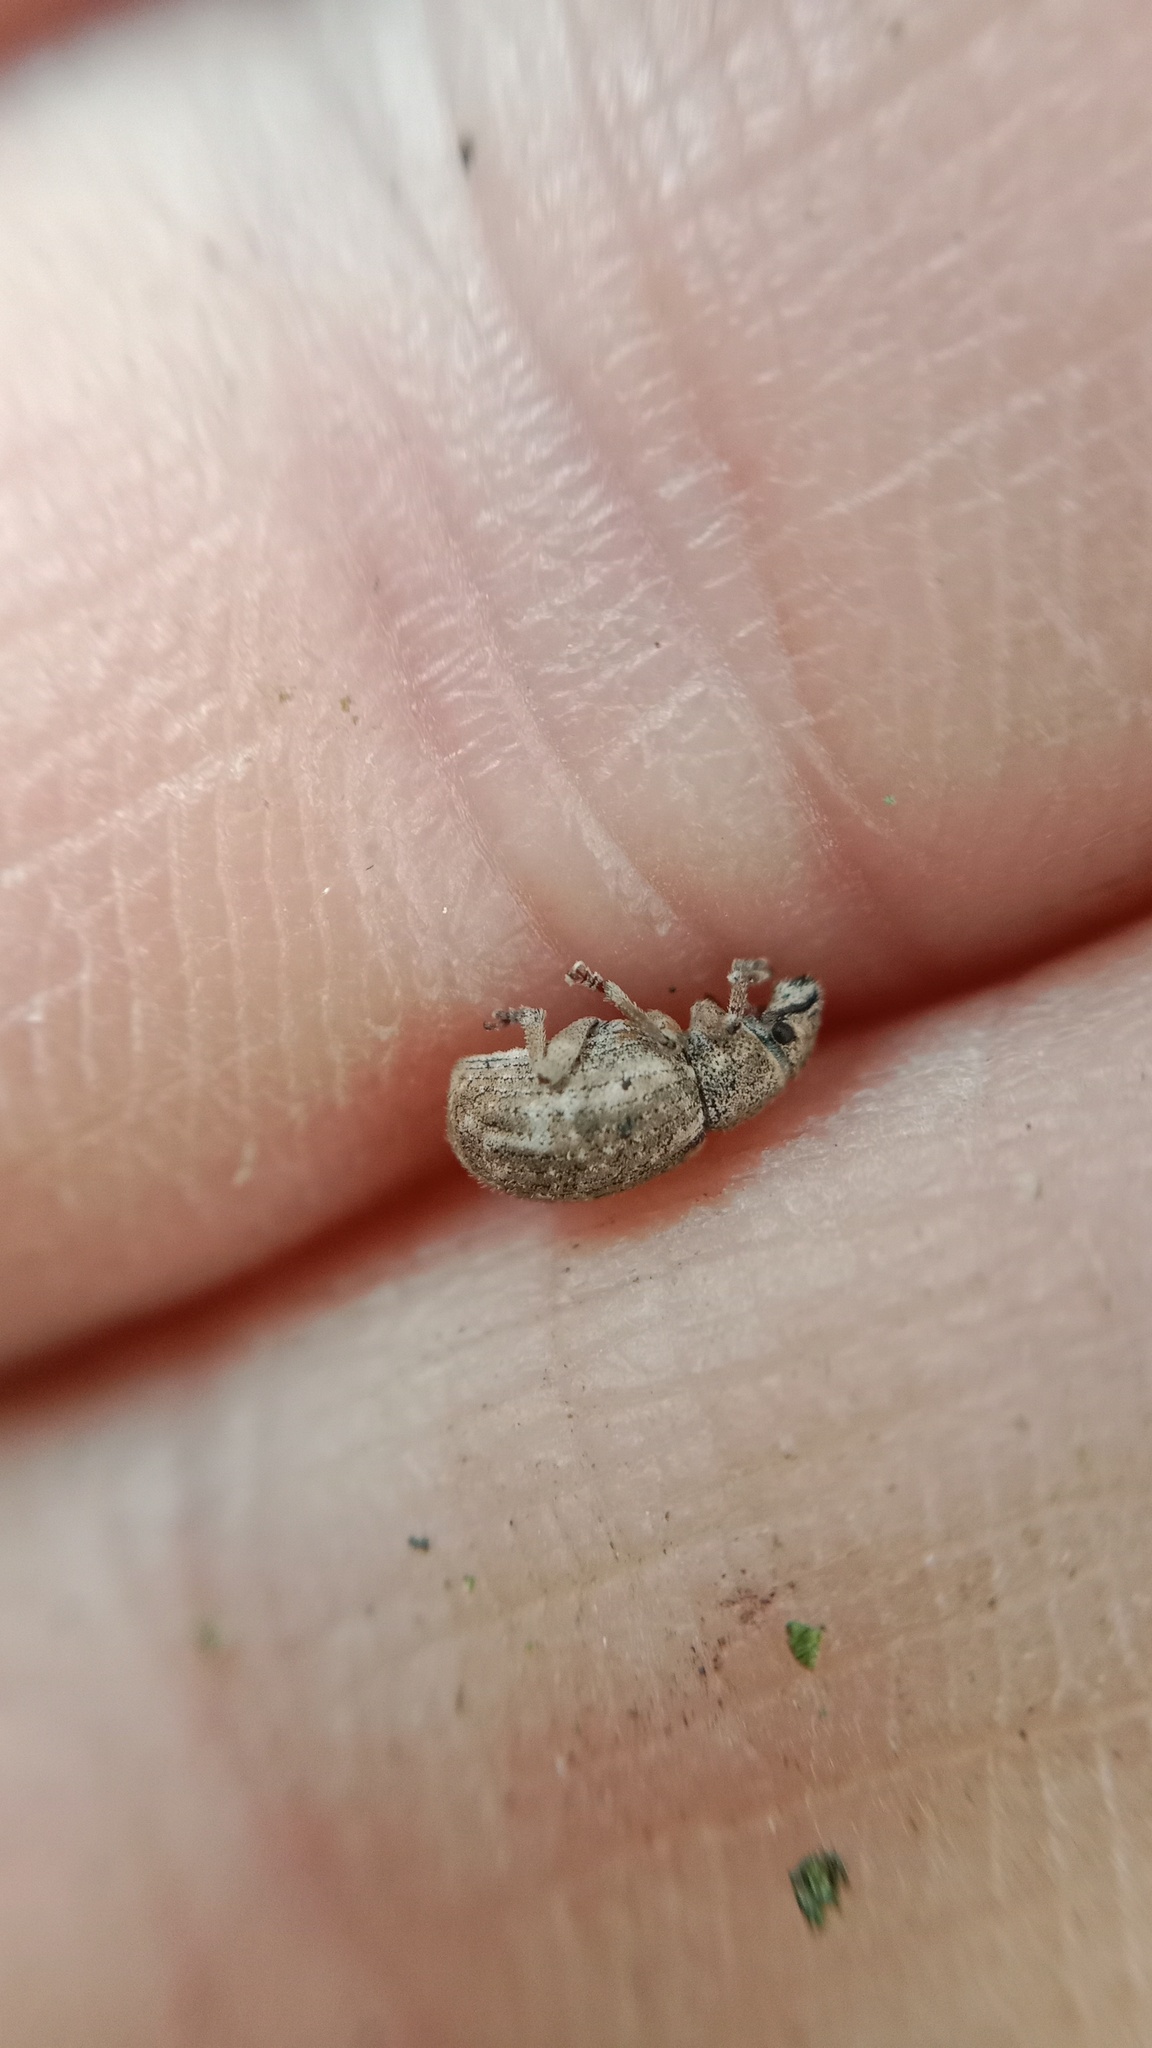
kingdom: Animalia
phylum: Arthropoda
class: Insecta
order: Coleoptera
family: Curculionidae
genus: Strophosoma
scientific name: Strophosoma capitatum
